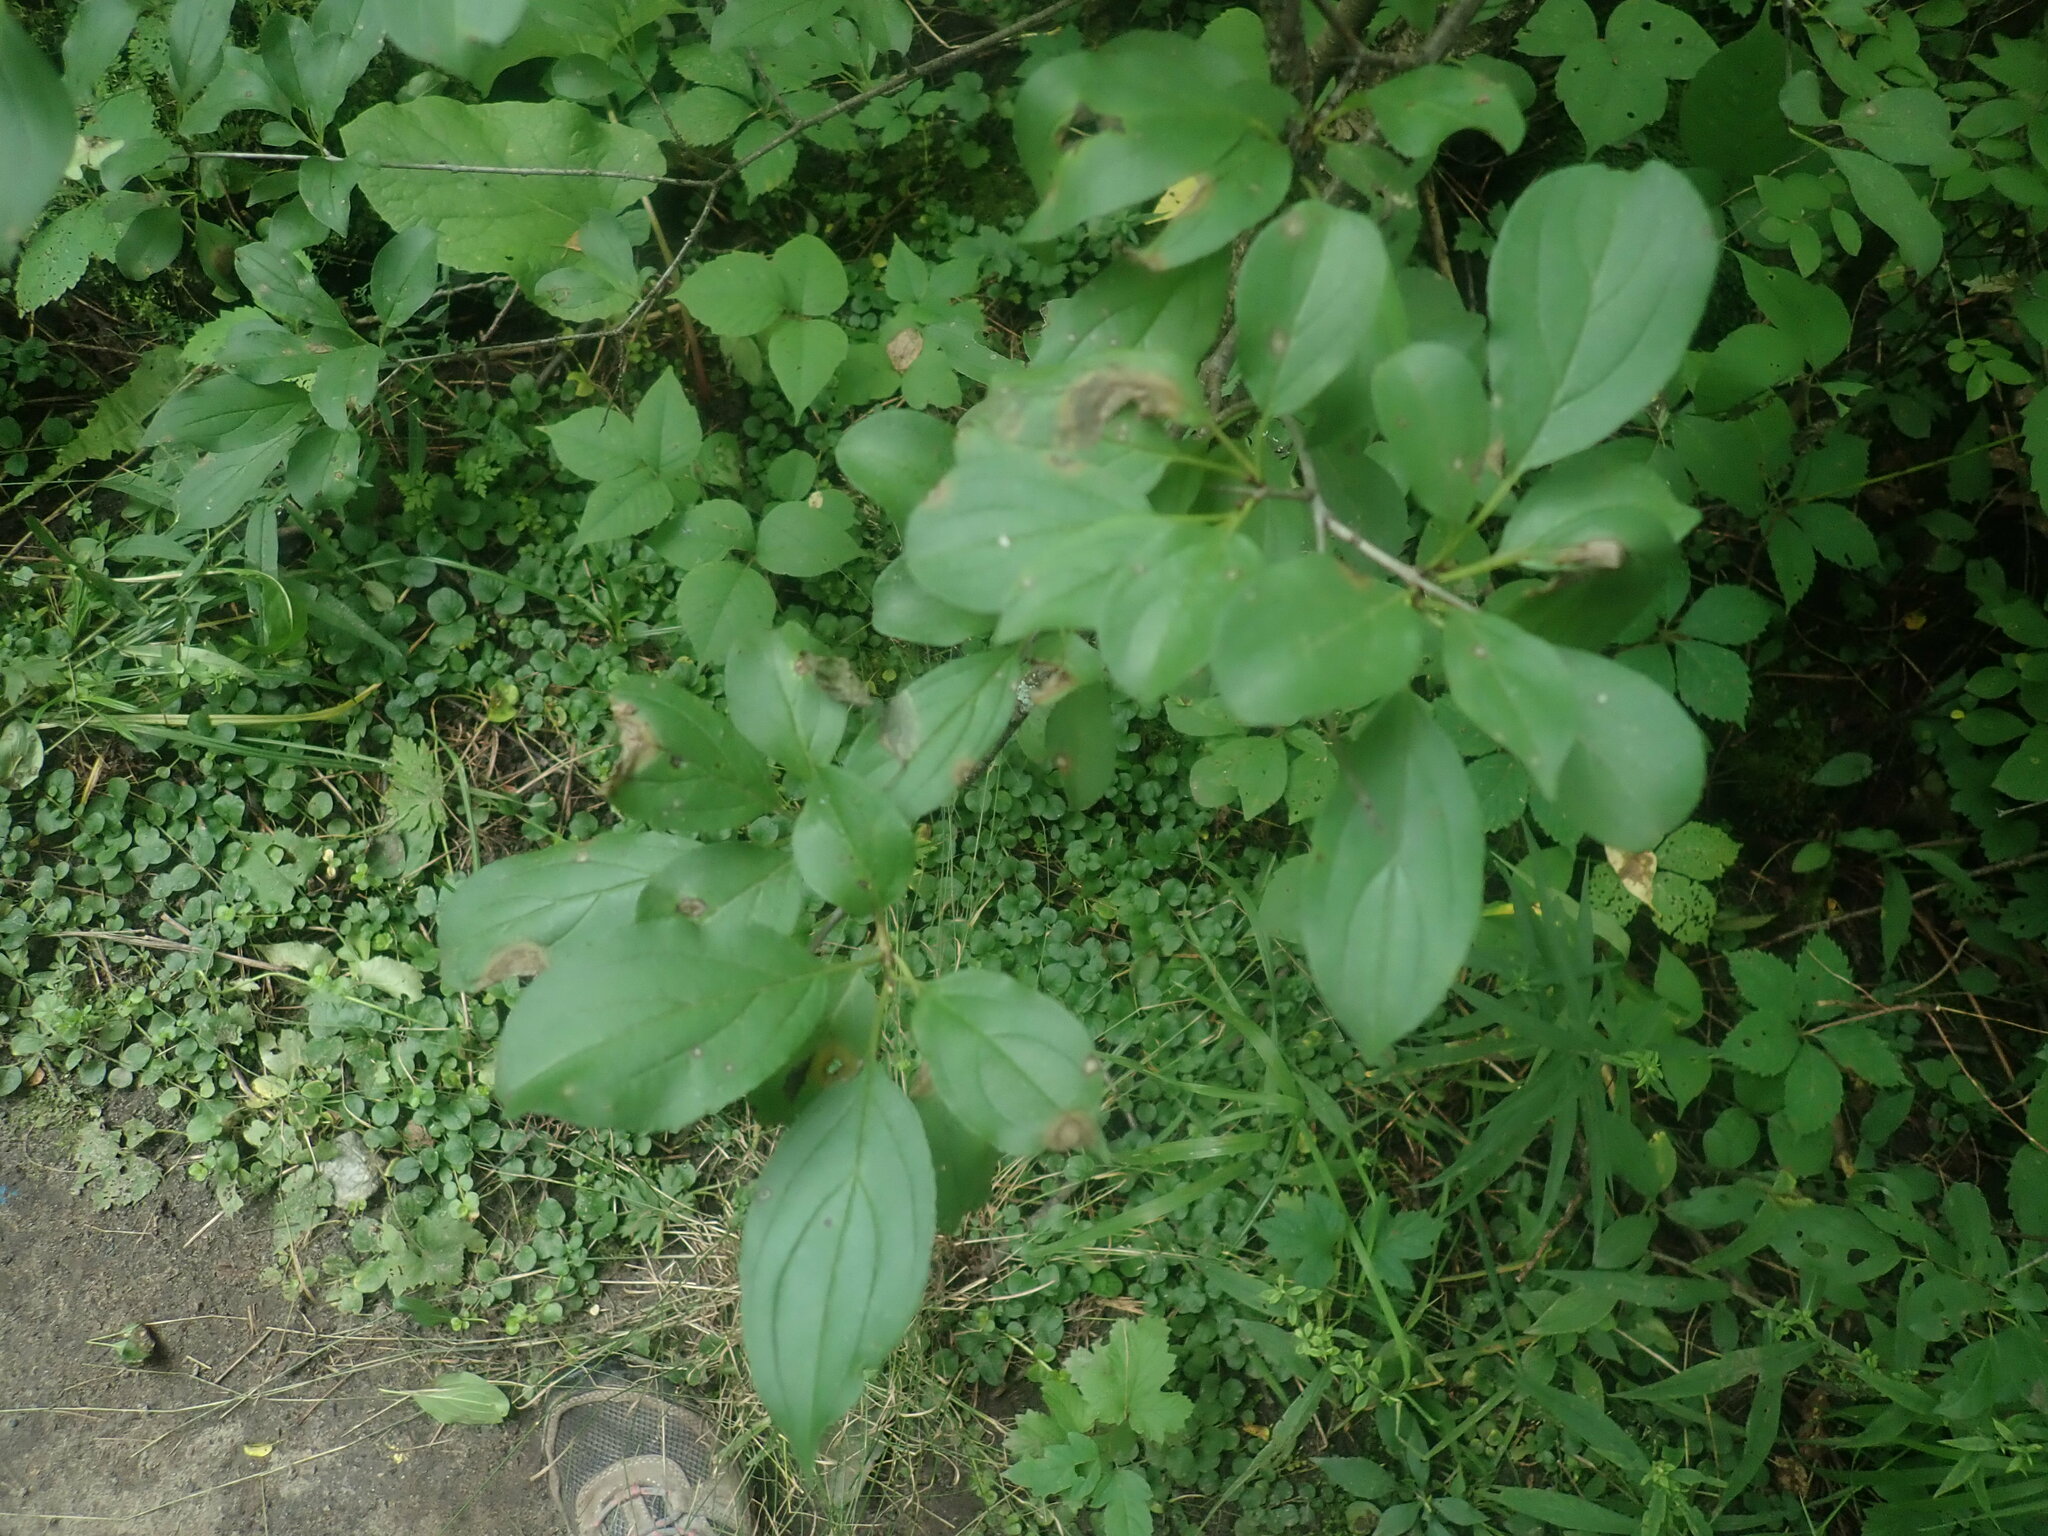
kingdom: Plantae
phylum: Tracheophyta
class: Magnoliopsida
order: Rosales
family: Rhamnaceae
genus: Rhamnus
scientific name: Rhamnus cathartica
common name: Common buckthorn
